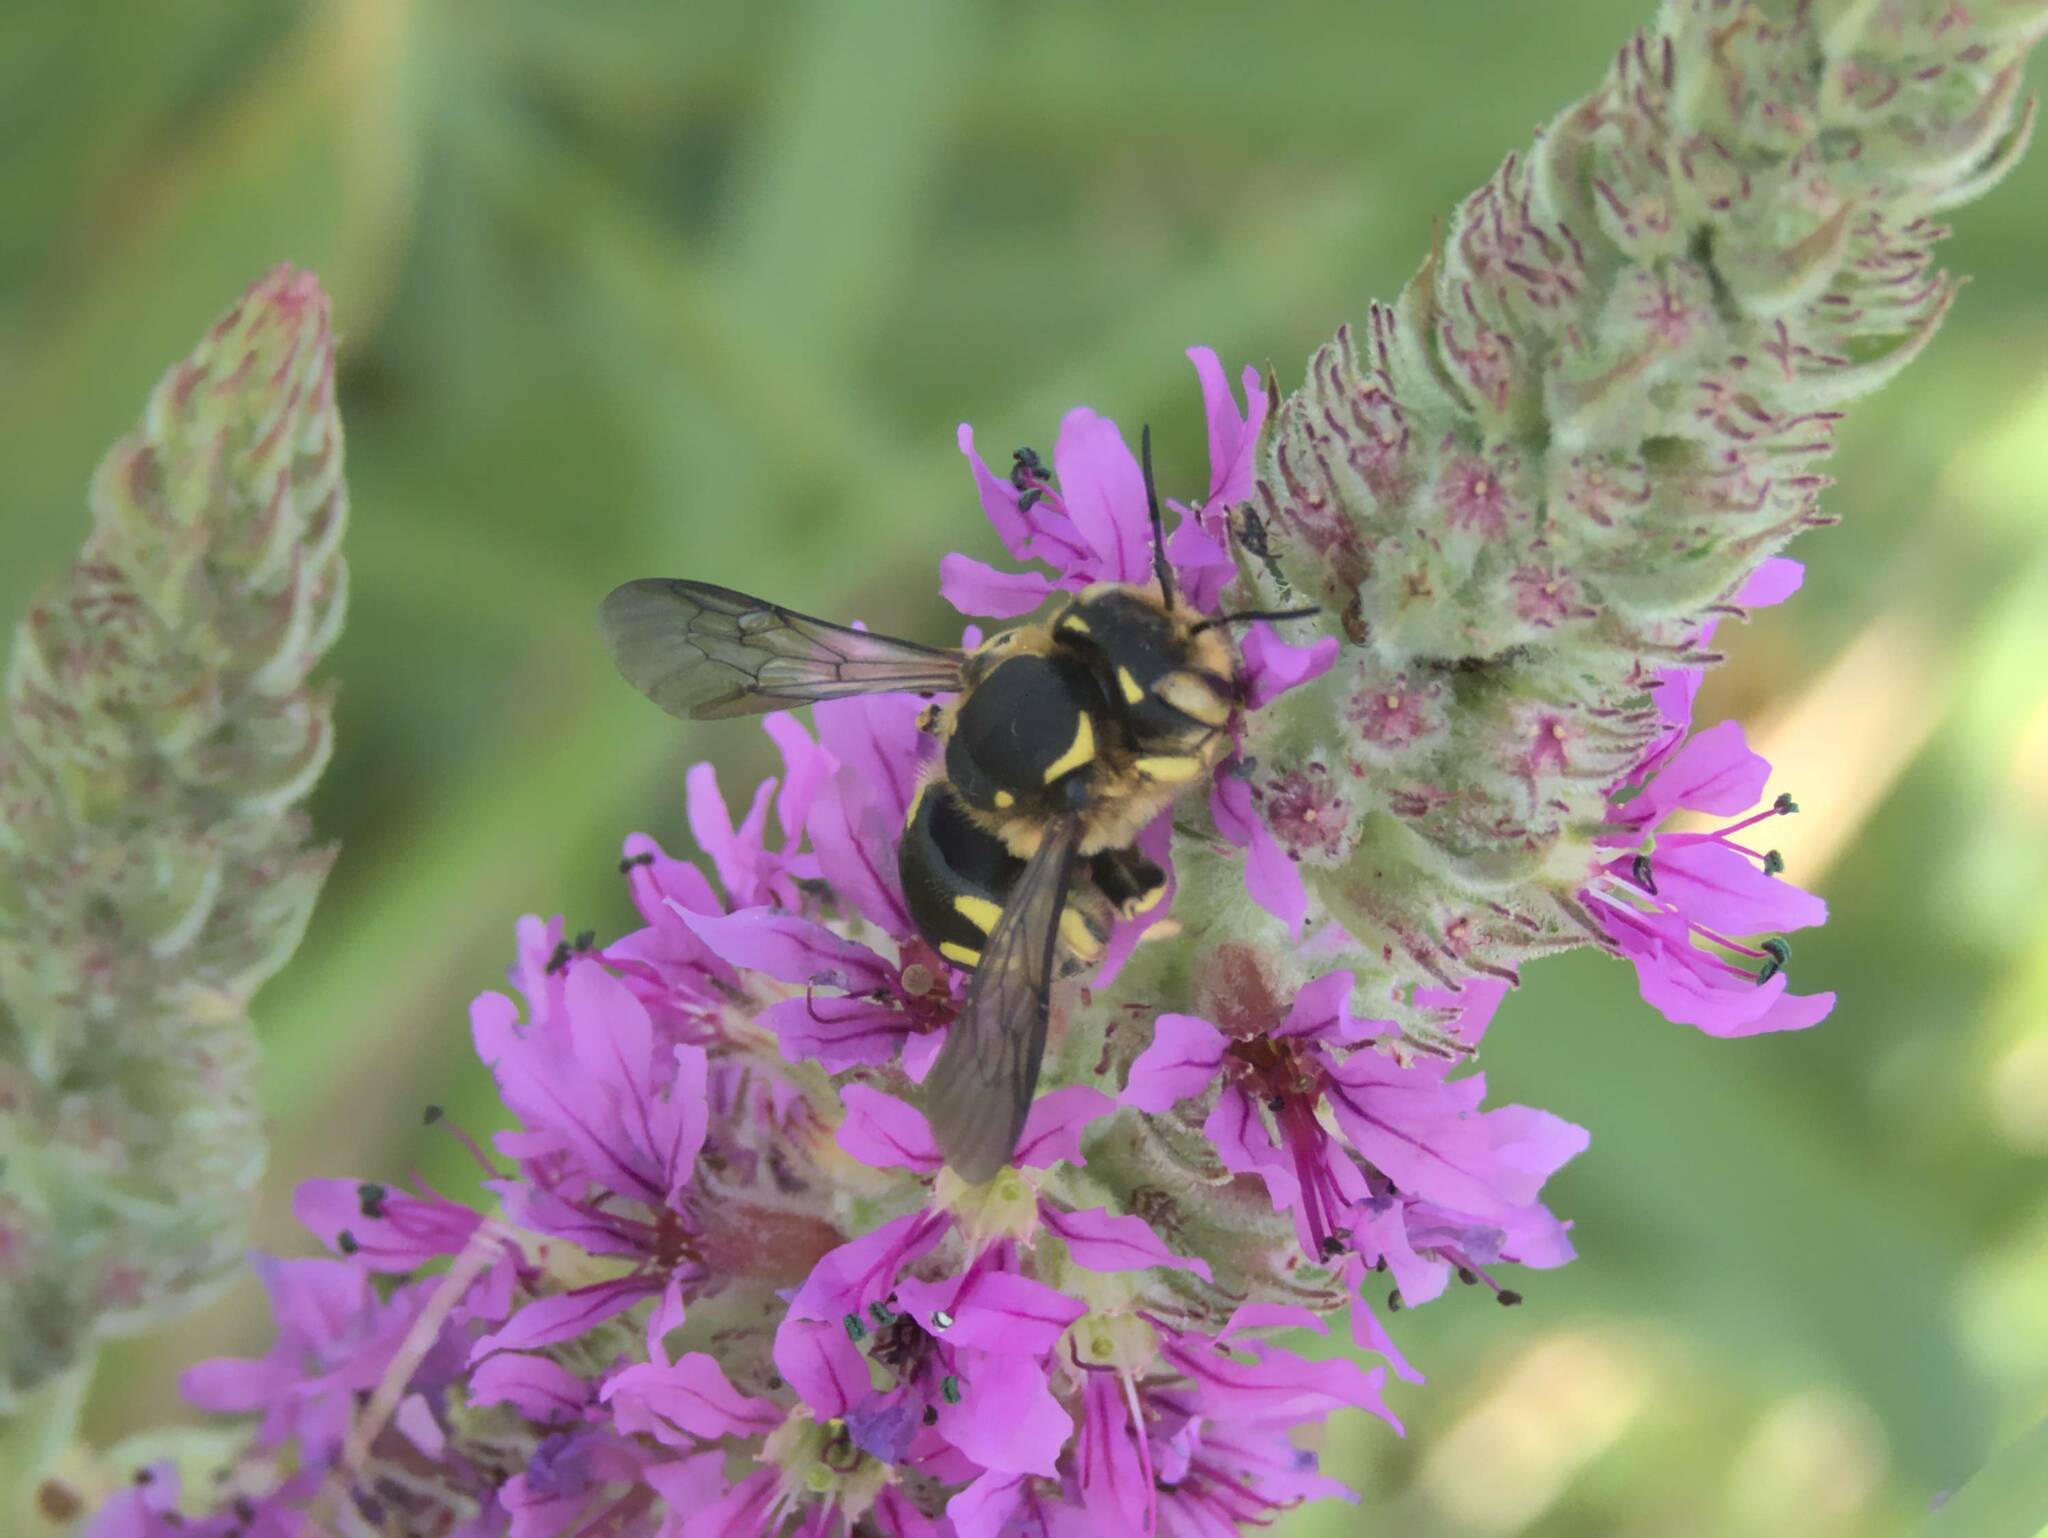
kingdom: Animalia
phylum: Arthropoda
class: Insecta
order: Hymenoptera
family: Megachilidae
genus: Anthidium
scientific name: Anthidium florentinum
